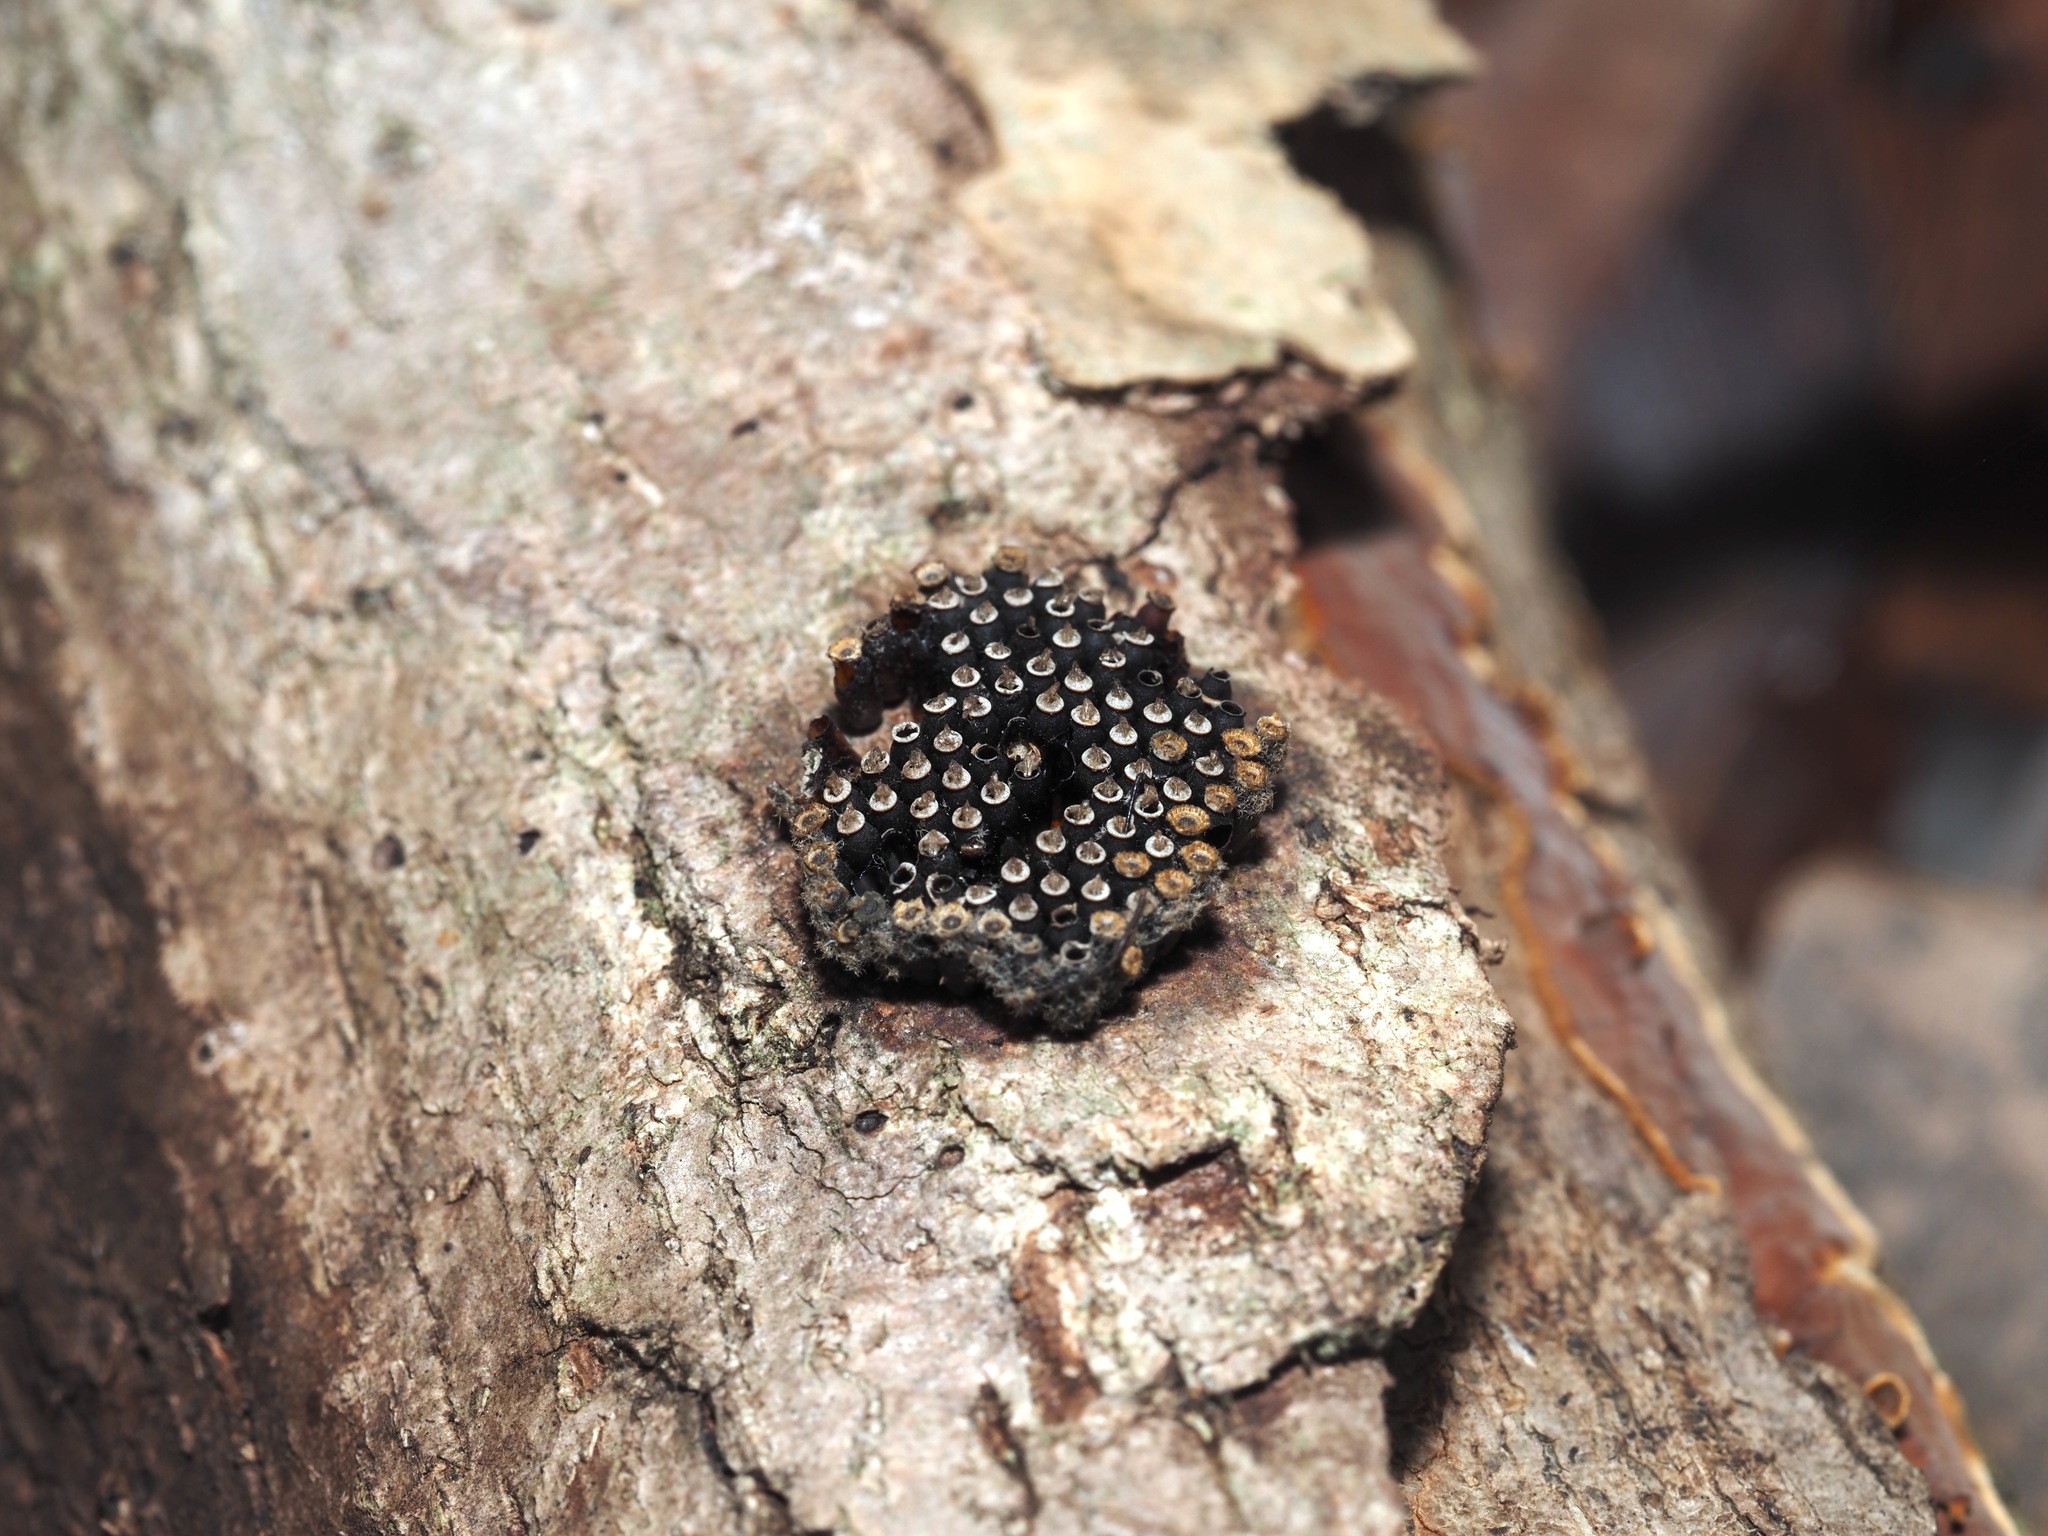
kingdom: Animalia
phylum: Arthropoda
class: Insecta
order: Hemiptera
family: Reduviidae
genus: Arilus
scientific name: Arilus cristatus
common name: North american wheel bug
